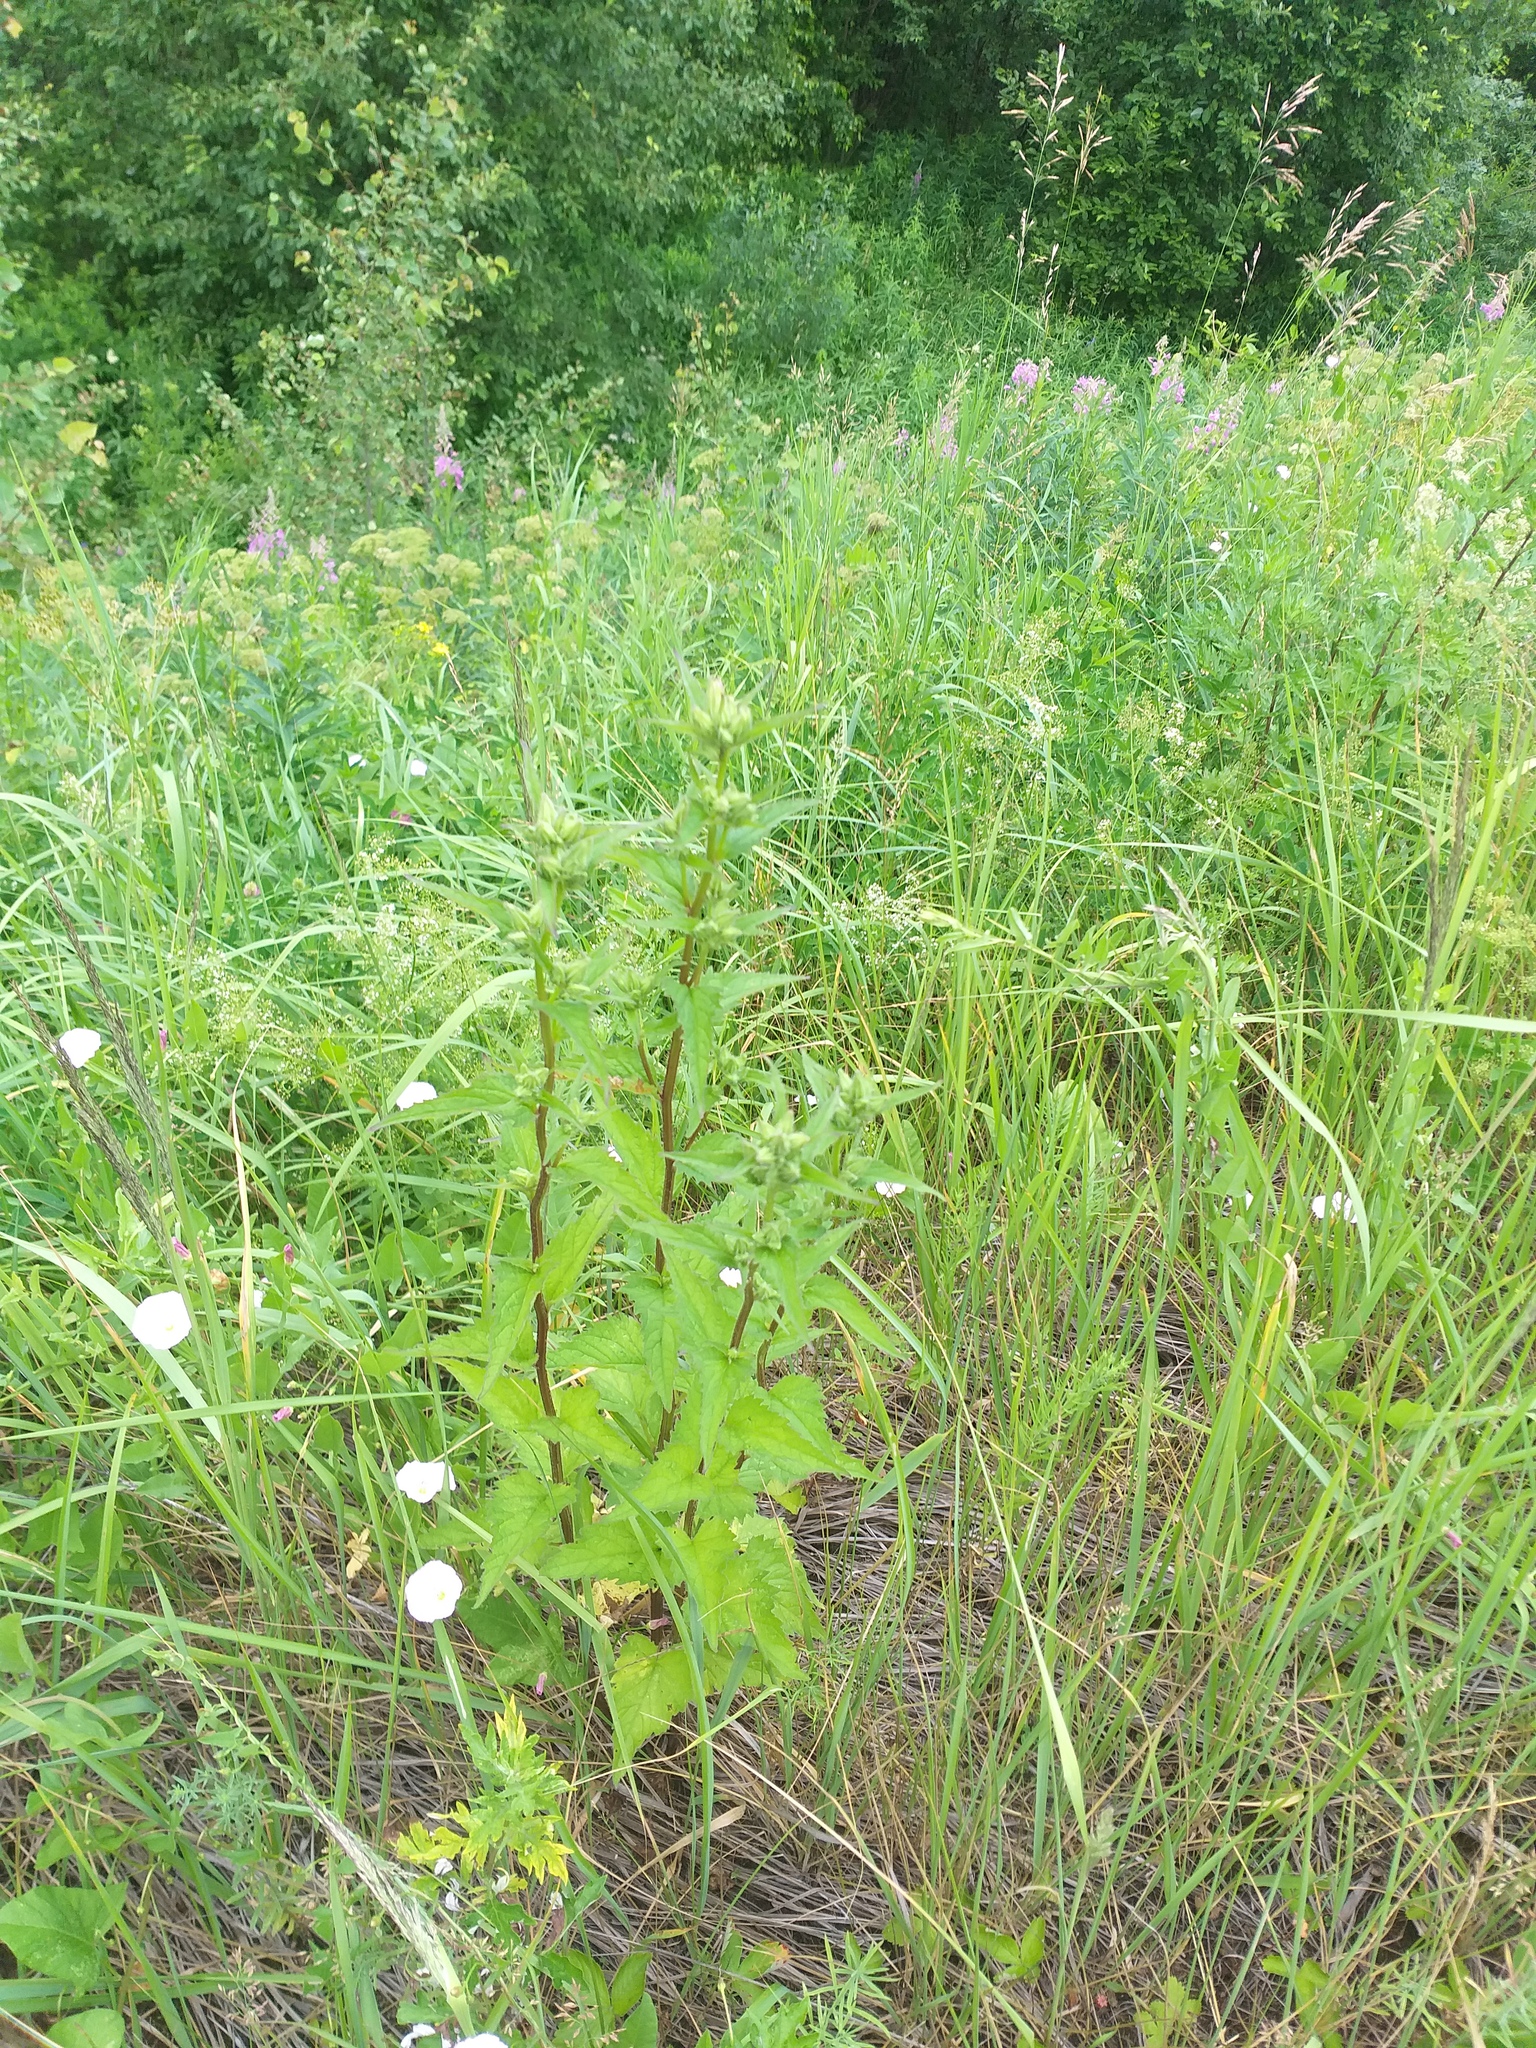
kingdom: Plantae
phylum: Tracheophyta
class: Magnoliopsida
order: Asterales
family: Campanulaceae
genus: Campanula
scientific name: Campanula trachelium
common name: Nettle-leaved bellflower
